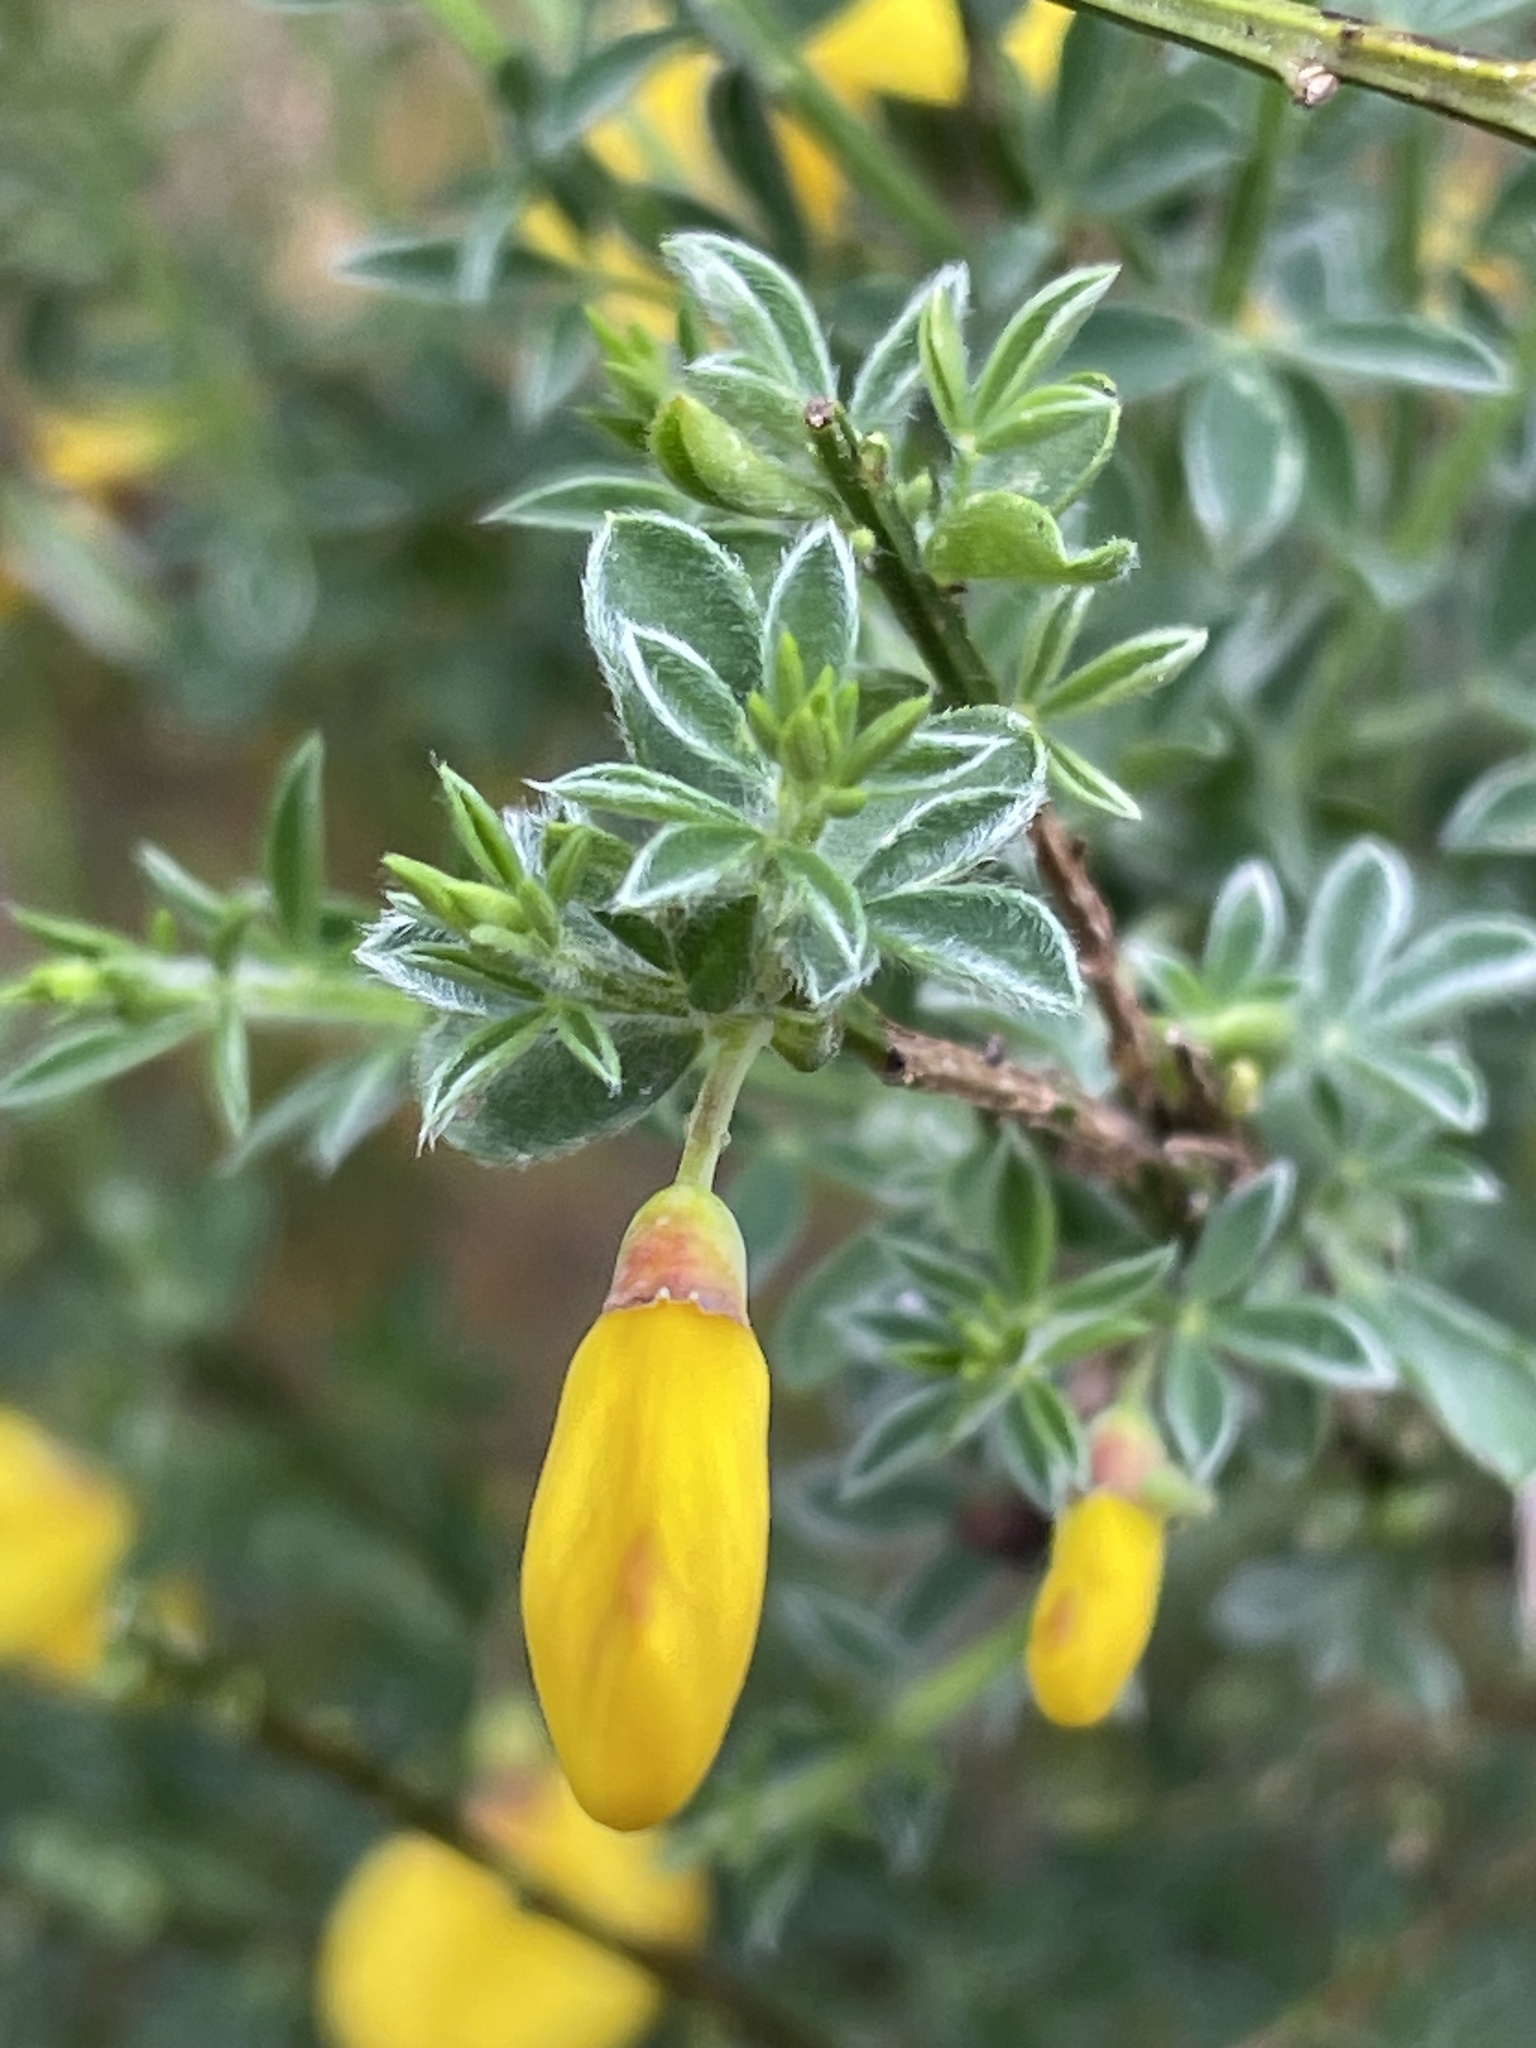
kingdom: Plantae
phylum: Tracheophyta
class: Magnoliopsida
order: Fabales
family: Fabaceae
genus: Cytisus
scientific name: Cytisus scoparius
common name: Scotch broom
